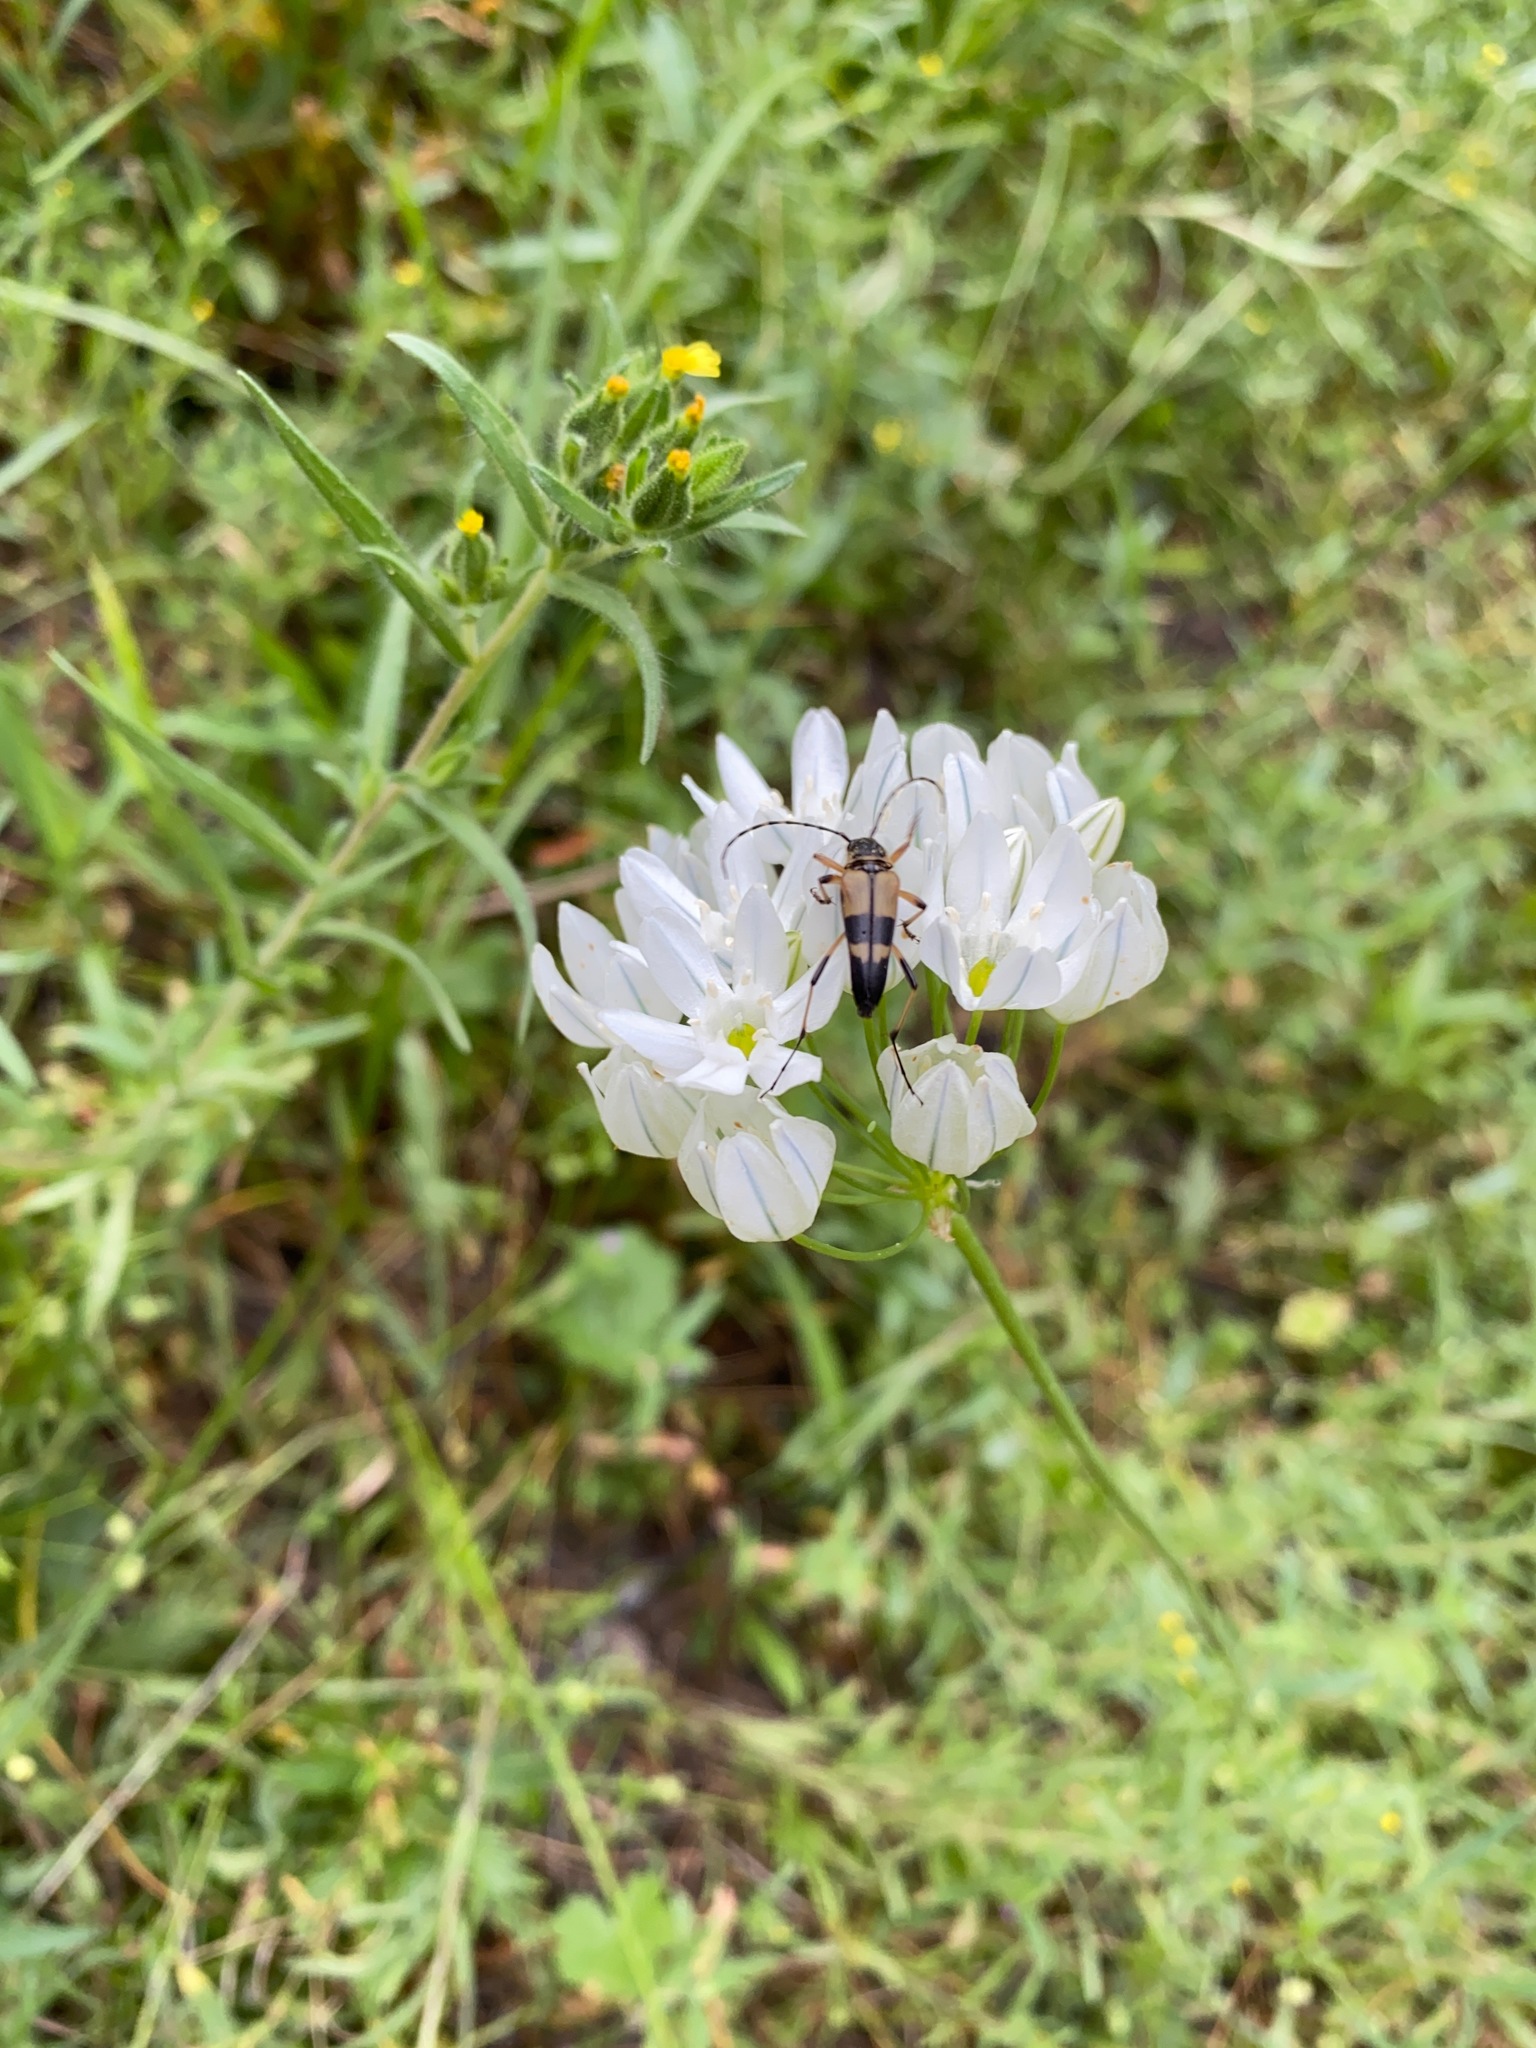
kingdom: Animalia
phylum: Arthropoda
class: Insecta
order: Coleoptera
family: Cerambycidae
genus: Etorofus
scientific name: Etorofus obliteratus
